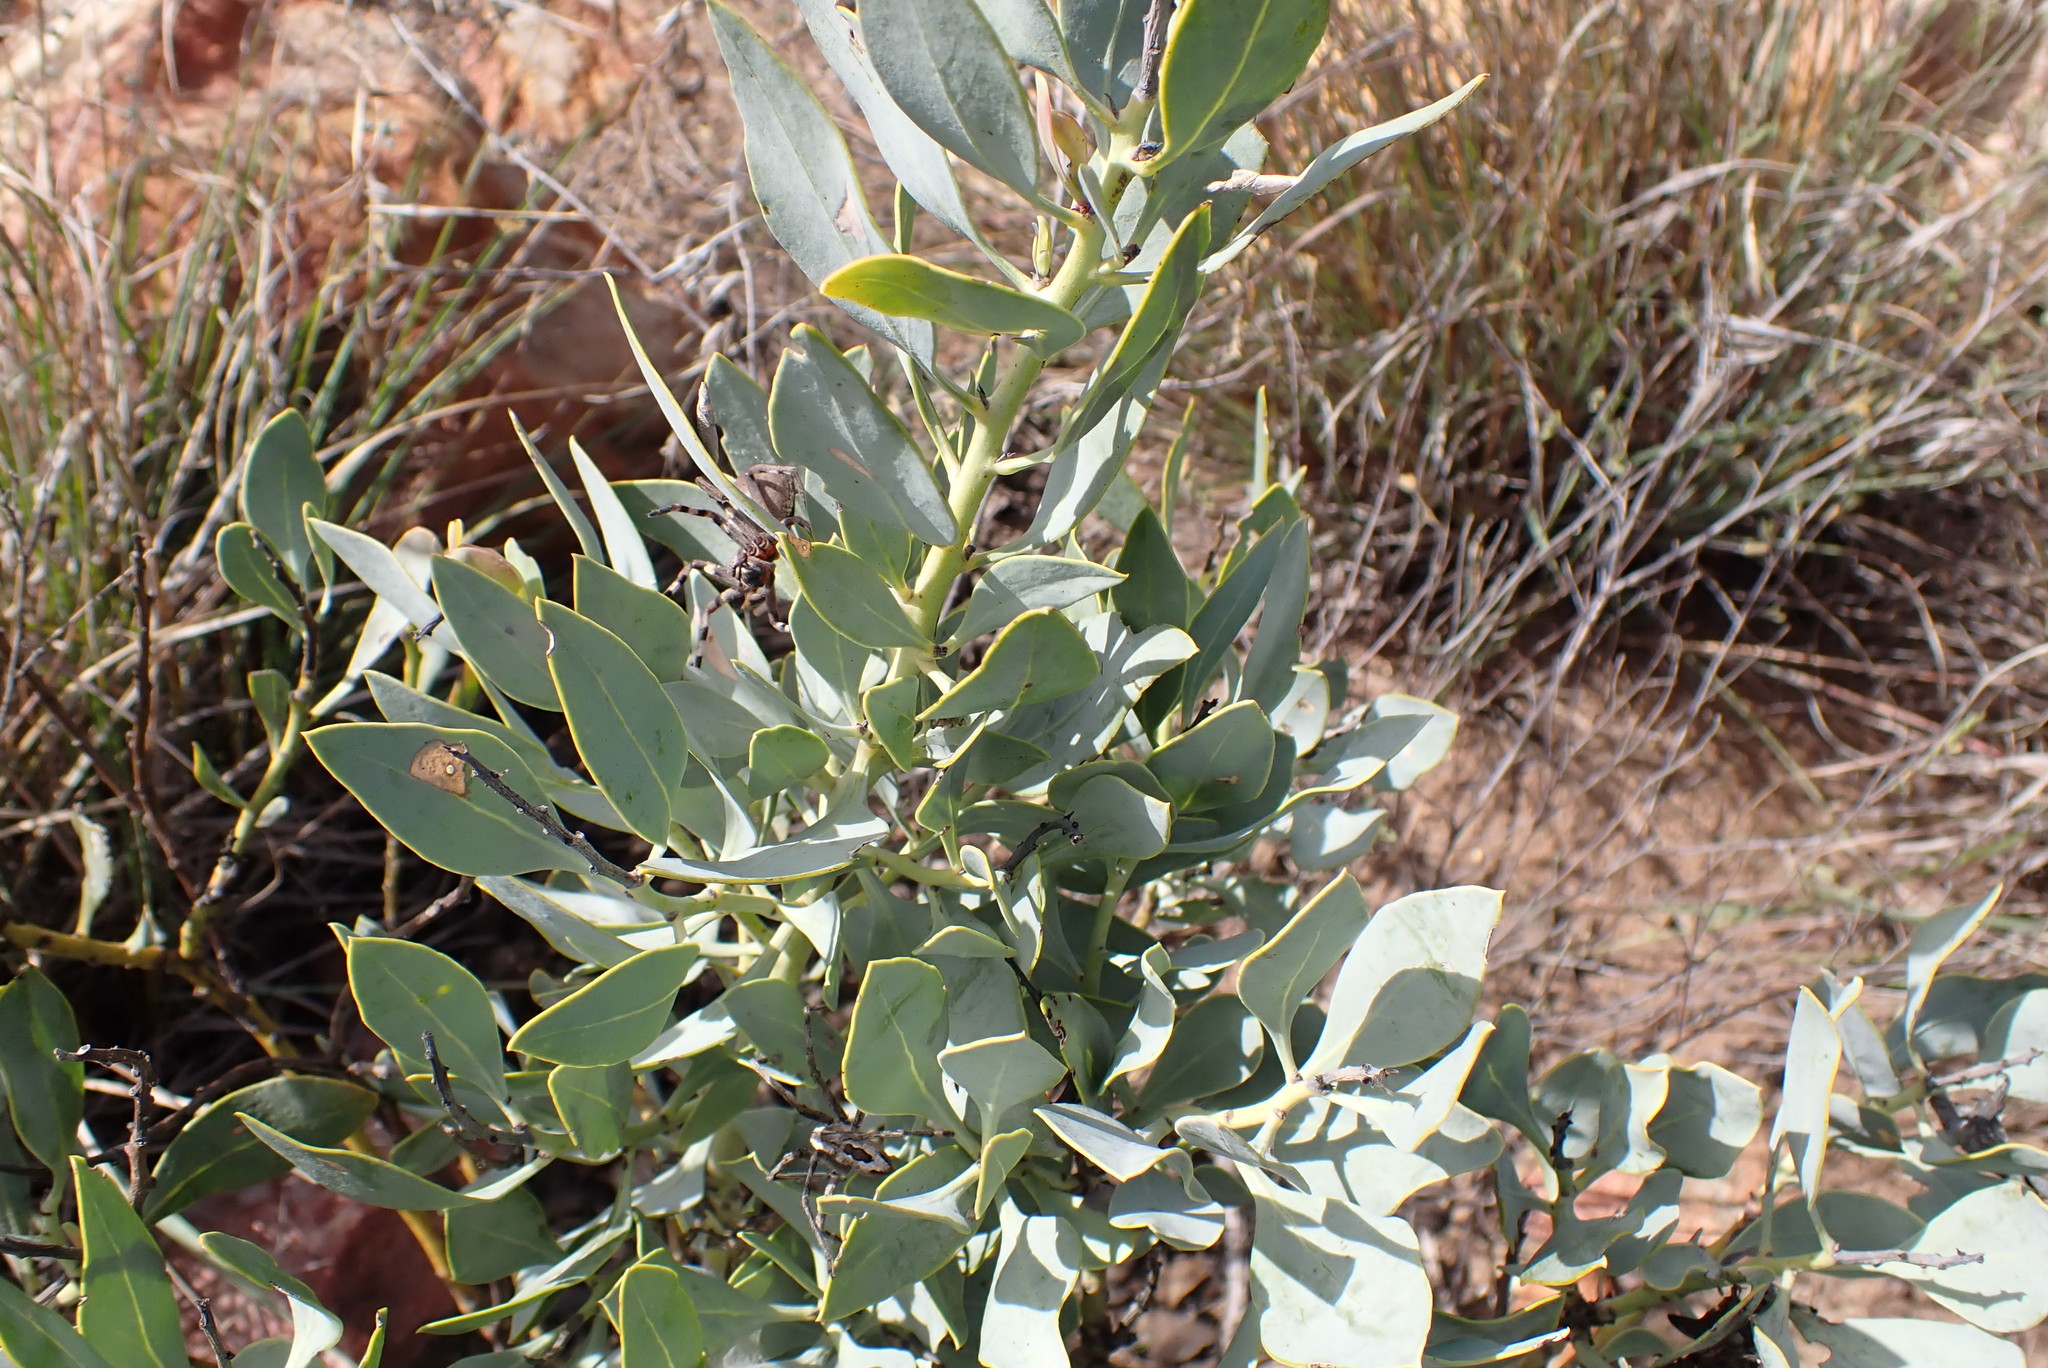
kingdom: Plantae
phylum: Tracheophyta
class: Magnoliopsida
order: Fabales
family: Fabaceae
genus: Rafnia
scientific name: Rafnia racemosa
